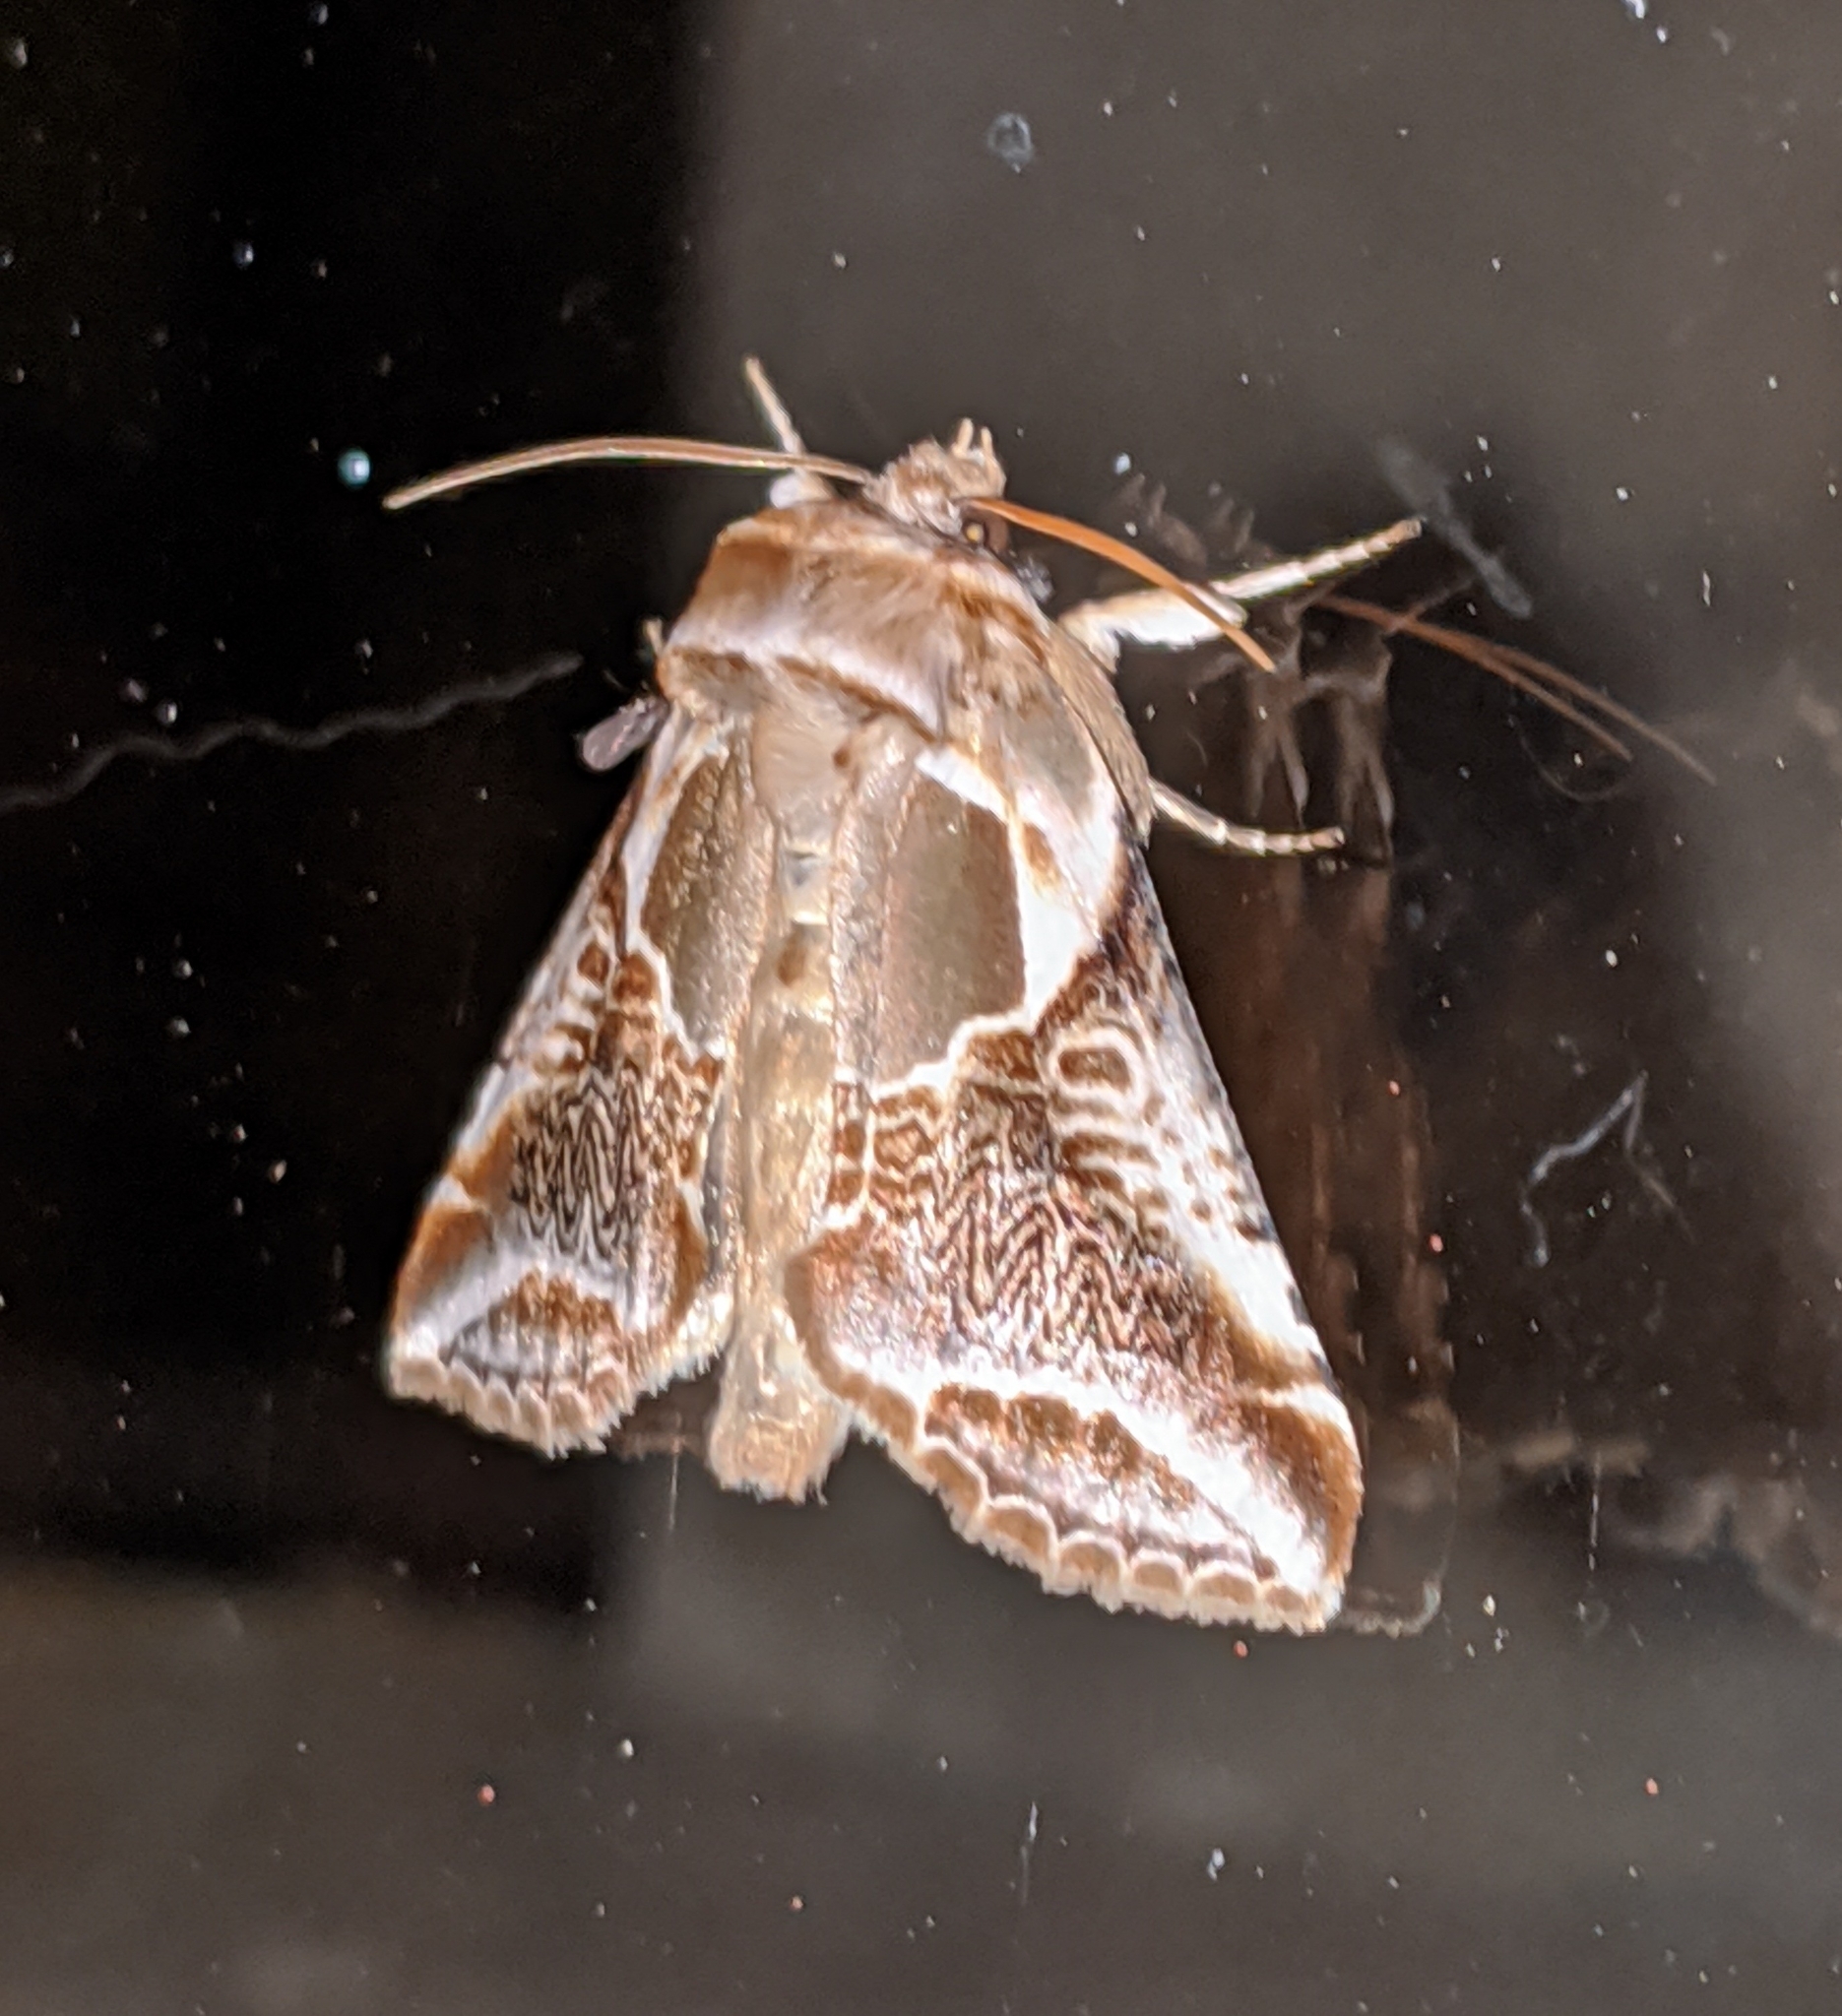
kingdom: Animalia
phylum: Arthropoda
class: Insecta
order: Lepidoptera
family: Drepanidae
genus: Habrosyne
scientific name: Habrosyne scripta
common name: Lettered habrosyne moth
